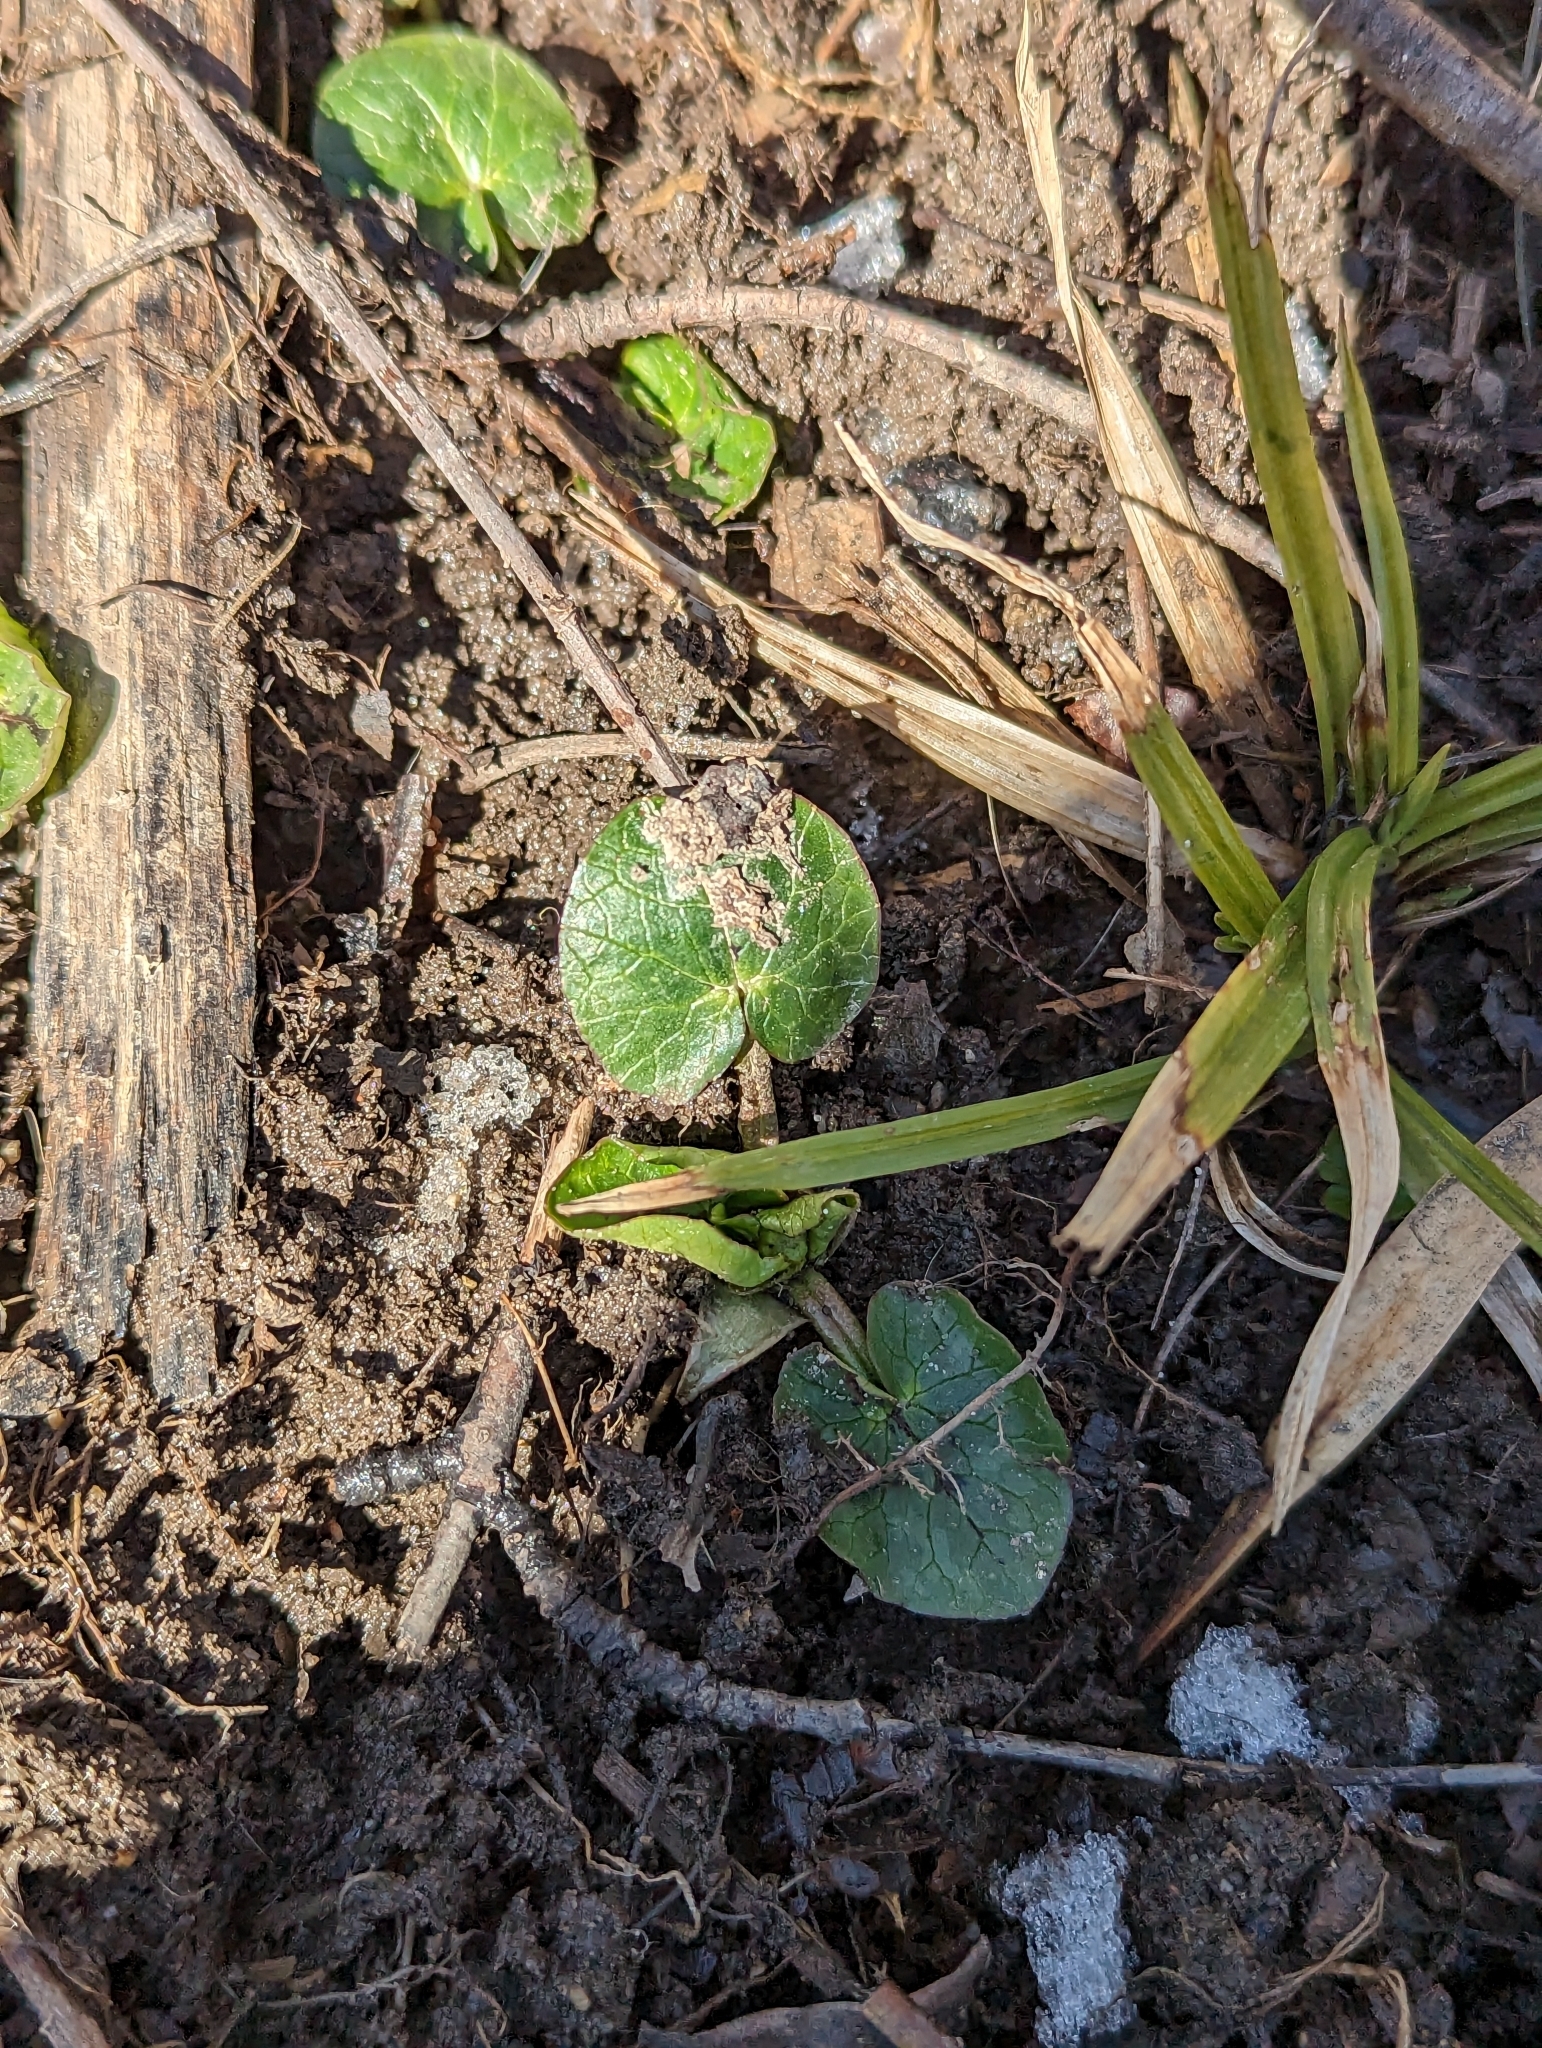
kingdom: Plantae
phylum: Tracheophyta
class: Magnoliopsida
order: Ranunculales
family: Ranunculaceae
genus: Ficaria
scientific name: Ficaria verna
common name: Lesser celandine
